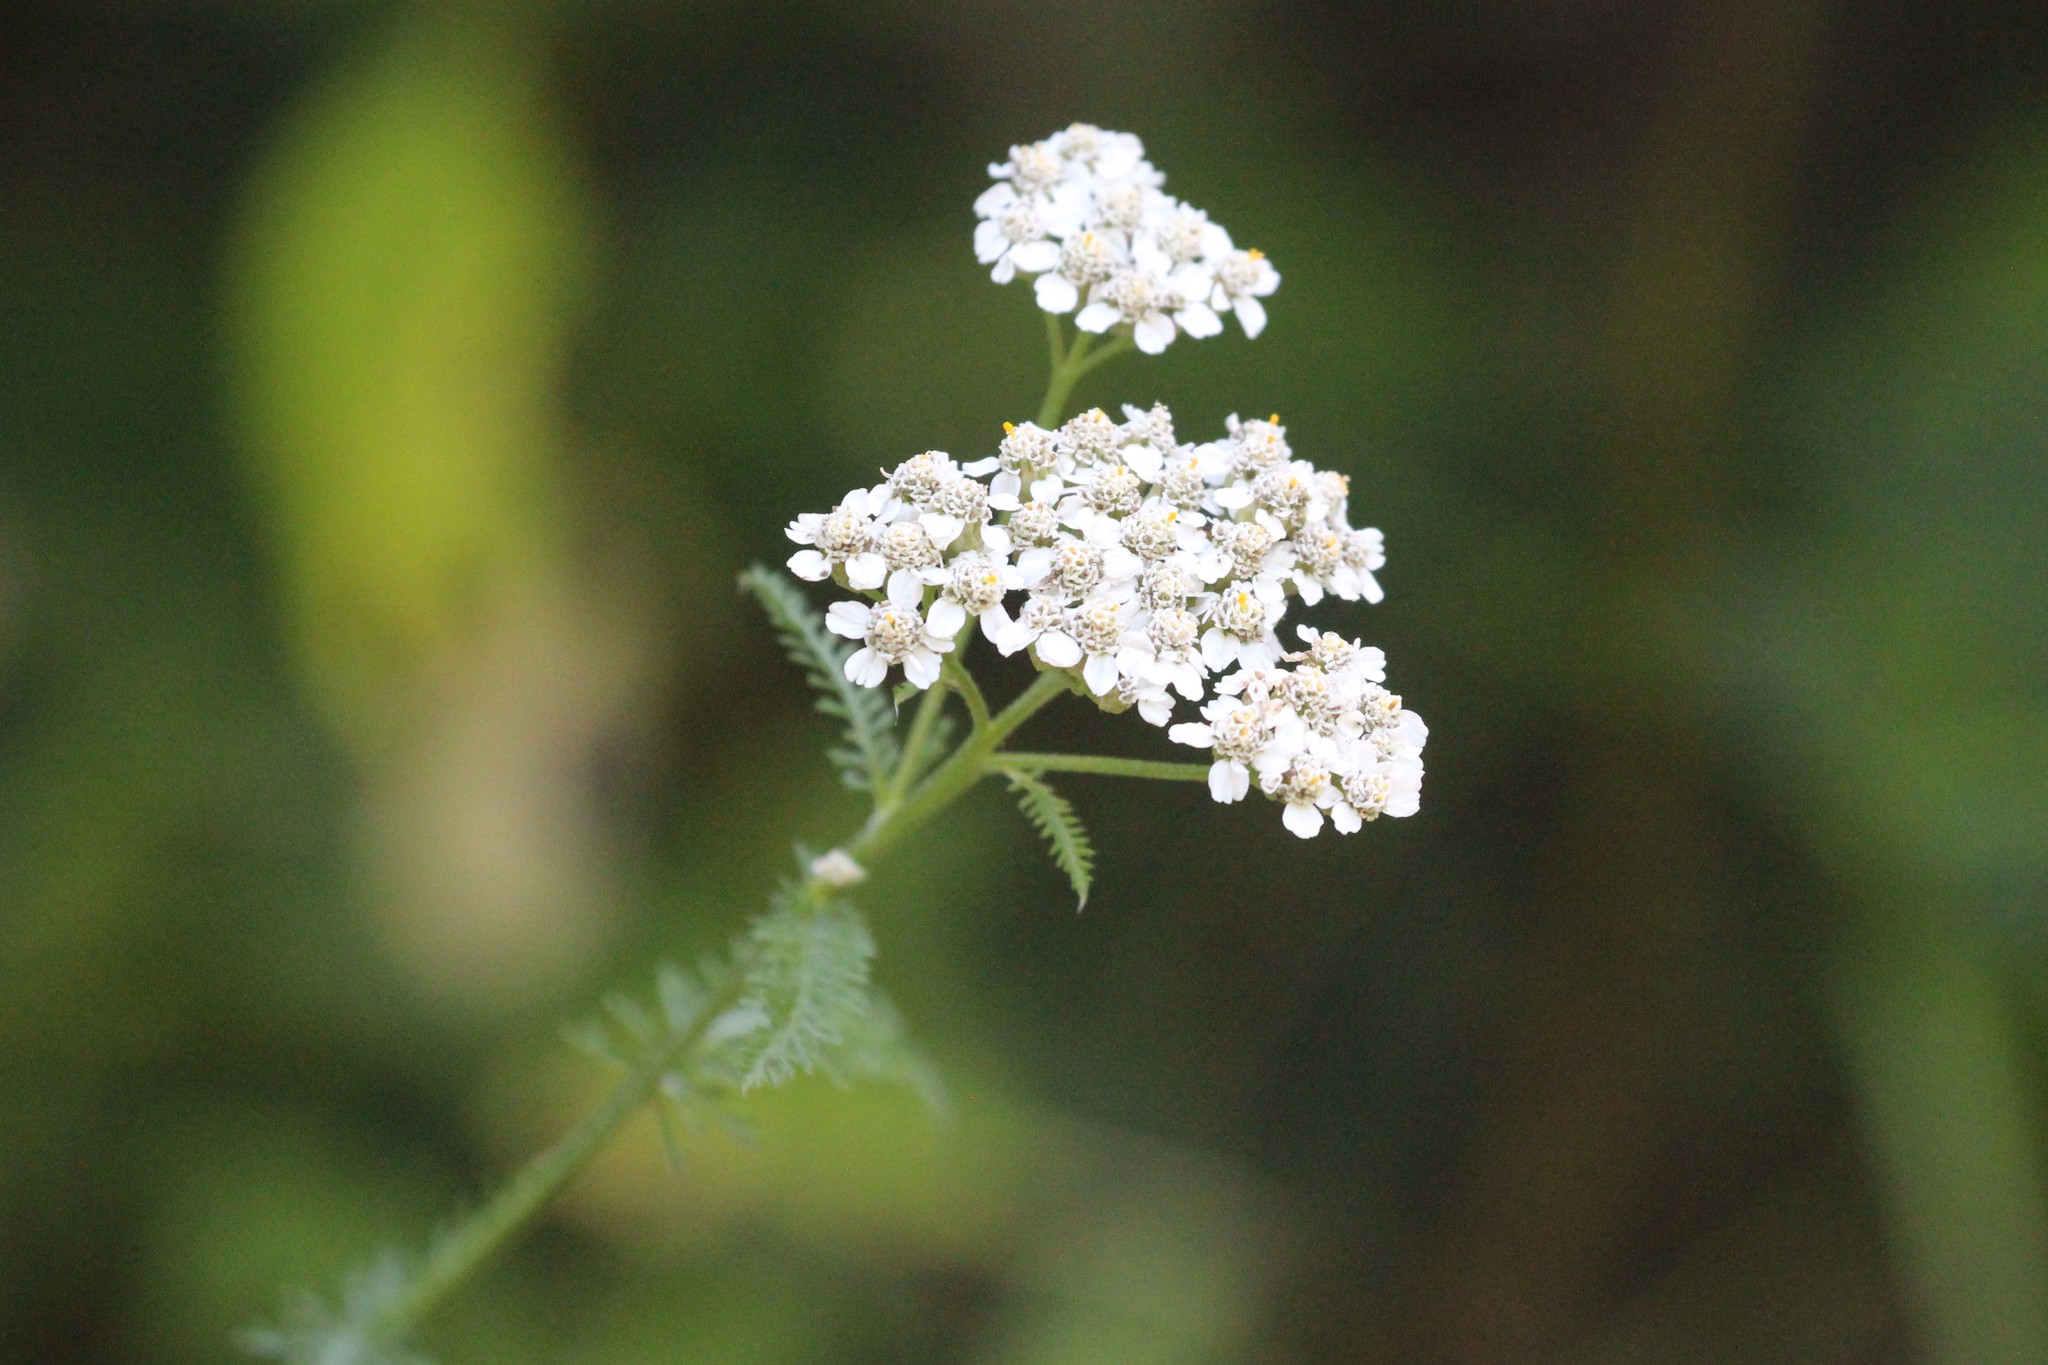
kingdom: Plantae
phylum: Tracheophyta
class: Magnoliopsida
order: Asterales
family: Asteraceae
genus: Achillea
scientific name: Achillea millefolium
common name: Yarrow
